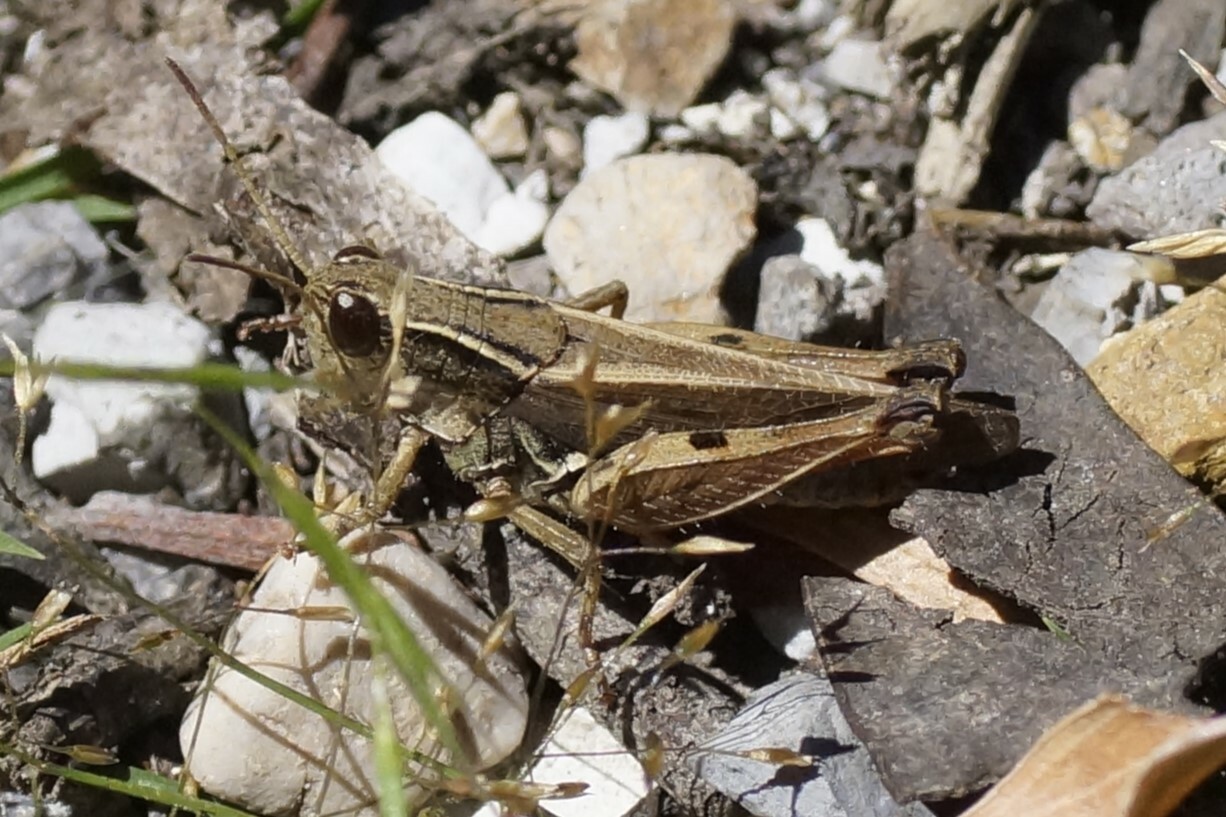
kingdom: Animalia
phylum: Arthropoda
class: Insecta
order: Orthoptera
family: Acrididae
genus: Phaulacridium
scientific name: Phaulacridium vittatum
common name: Wingless grasshopper
